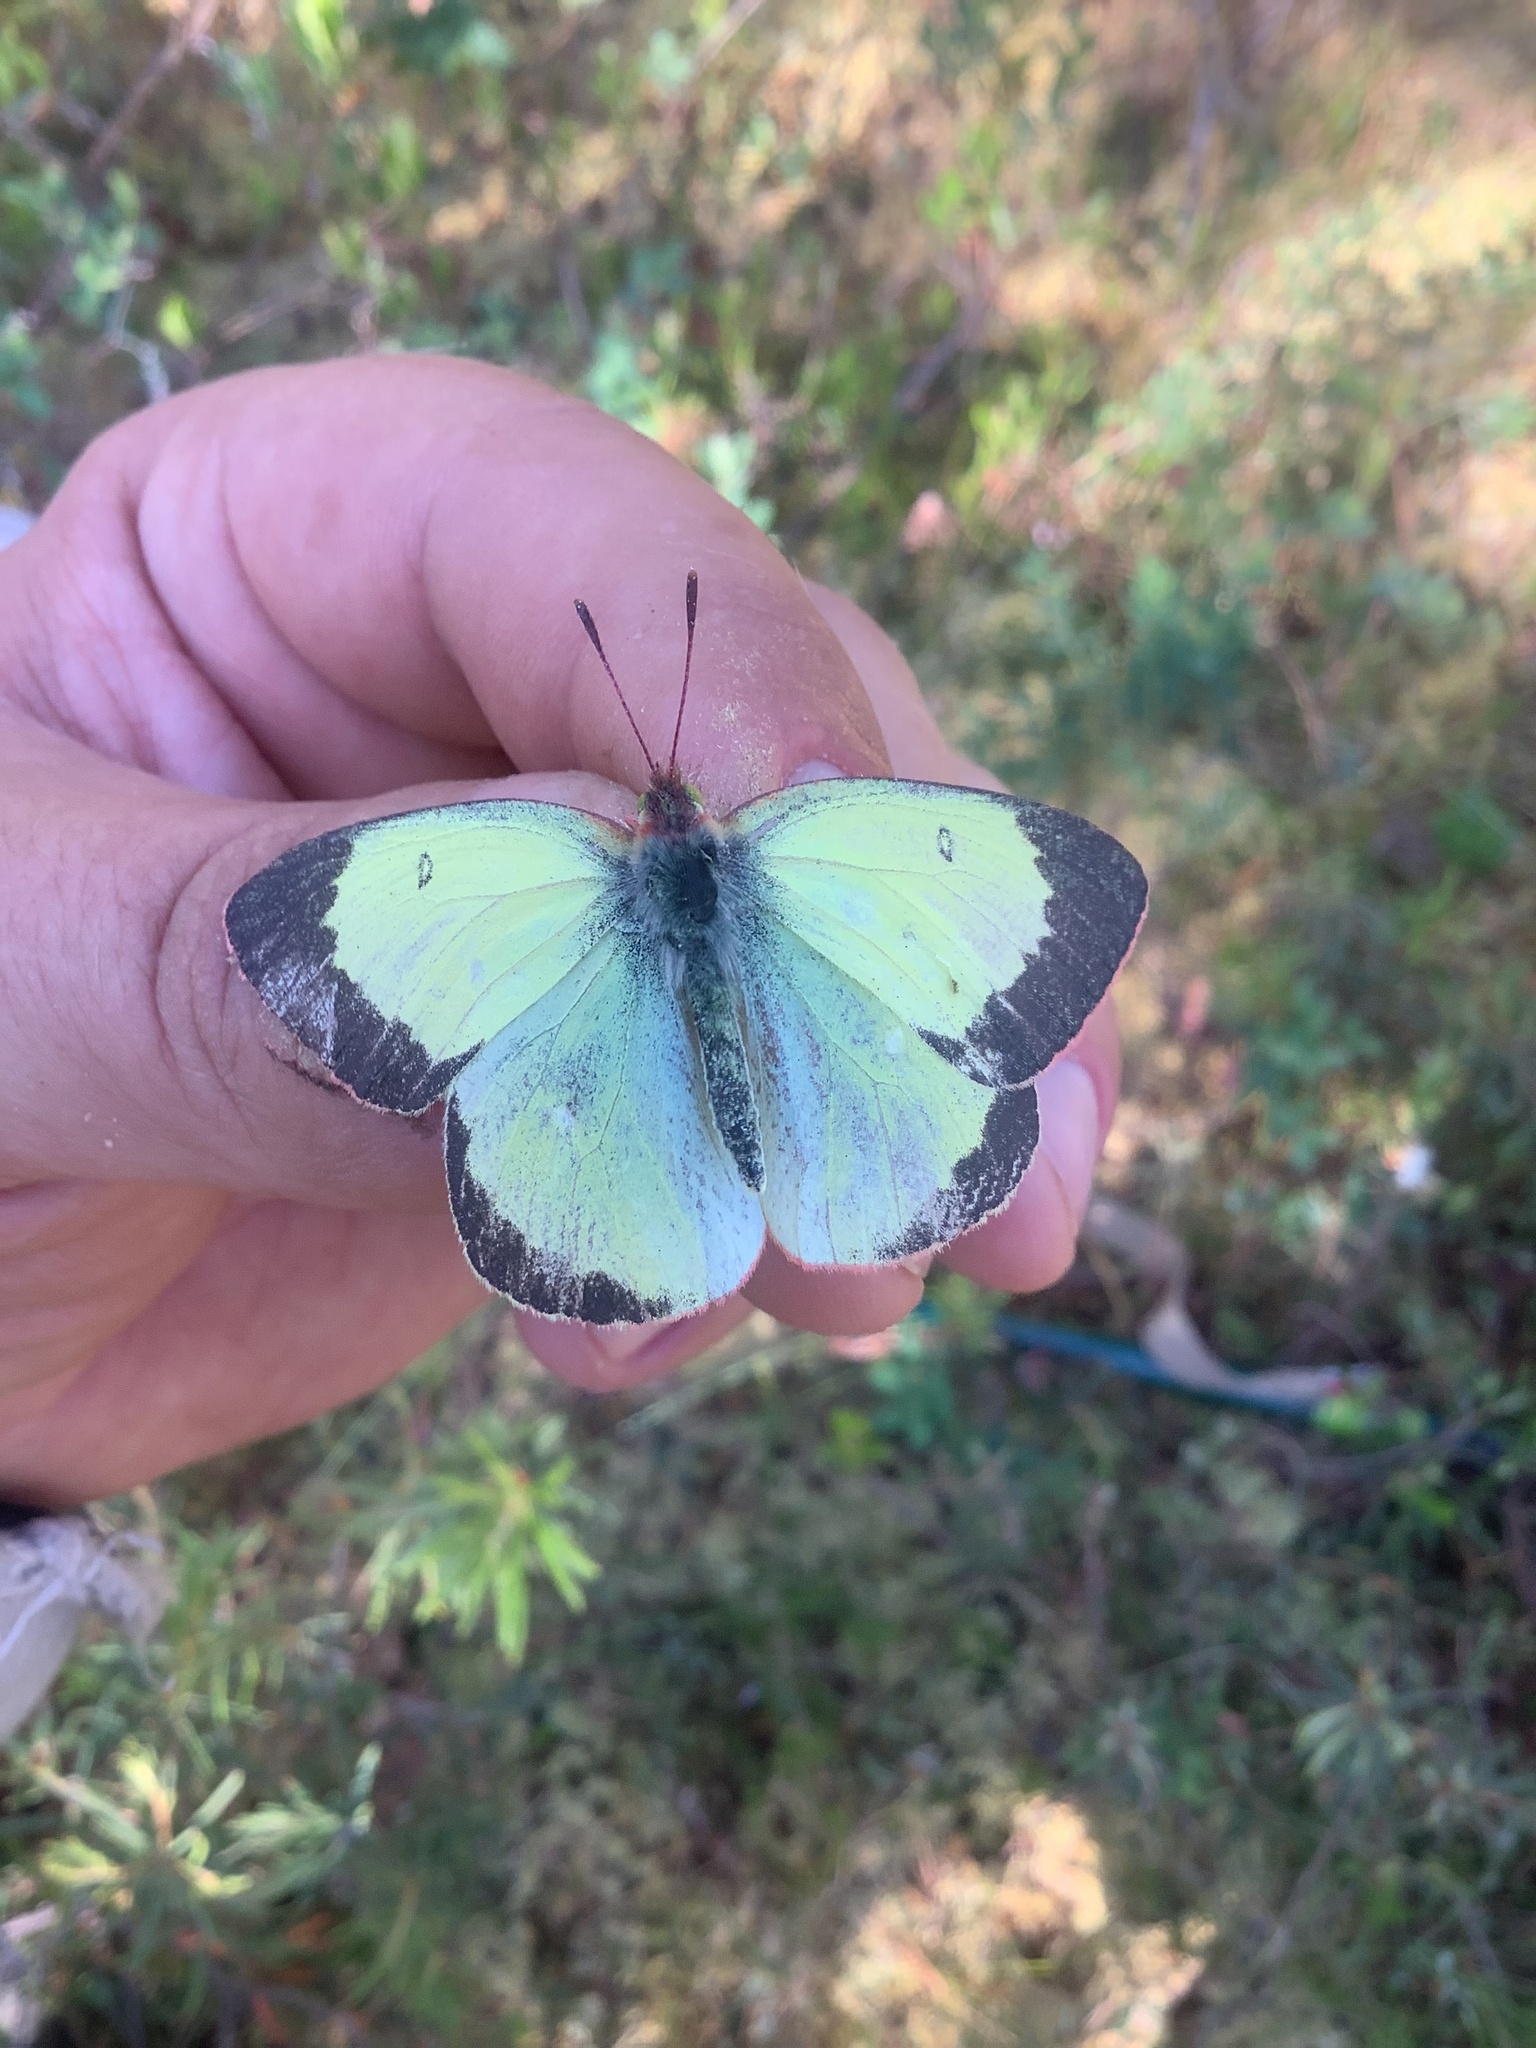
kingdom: Animalia
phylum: Arthropoda
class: Insecta
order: Lepidoptera
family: Pieridae
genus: Colias
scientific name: Colias palaeno
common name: Moorland clouded yellow
